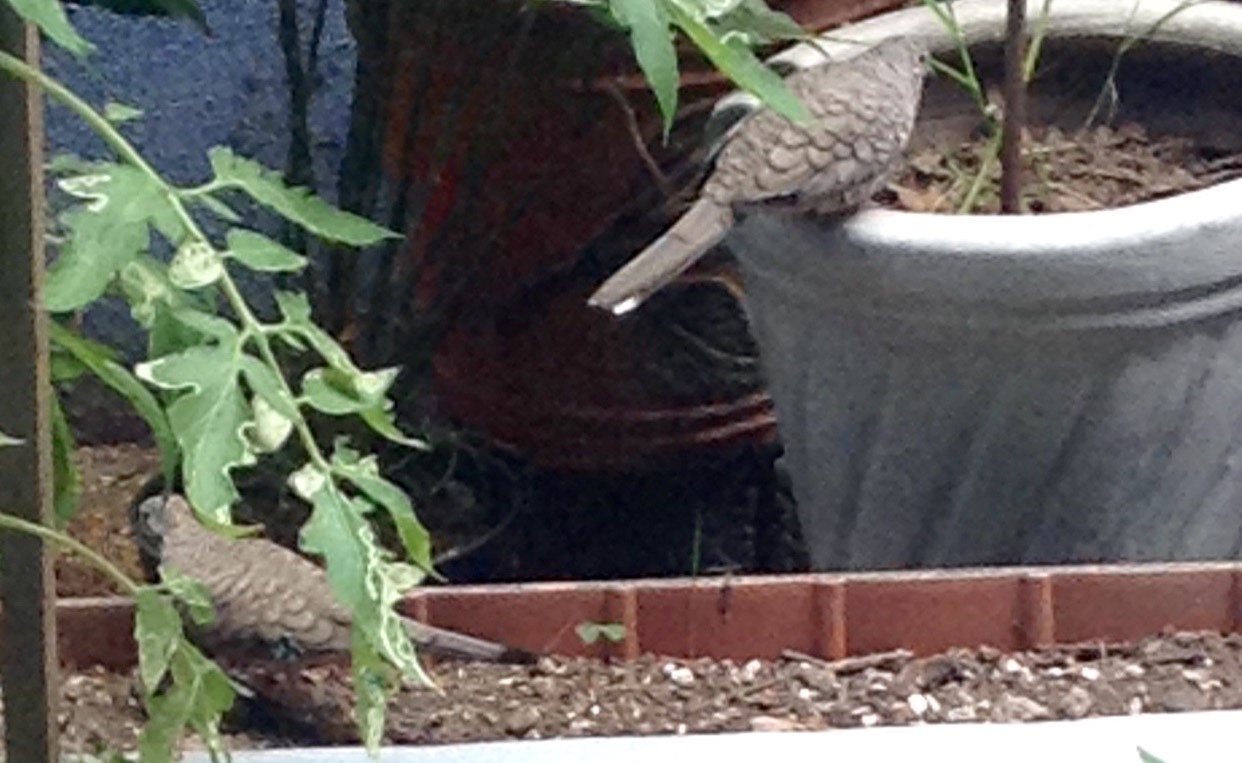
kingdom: Animalia
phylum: Chordata
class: Aves
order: Columbiformes
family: Columbidae
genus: Columbina
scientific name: Columbina inca
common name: Inca dove
